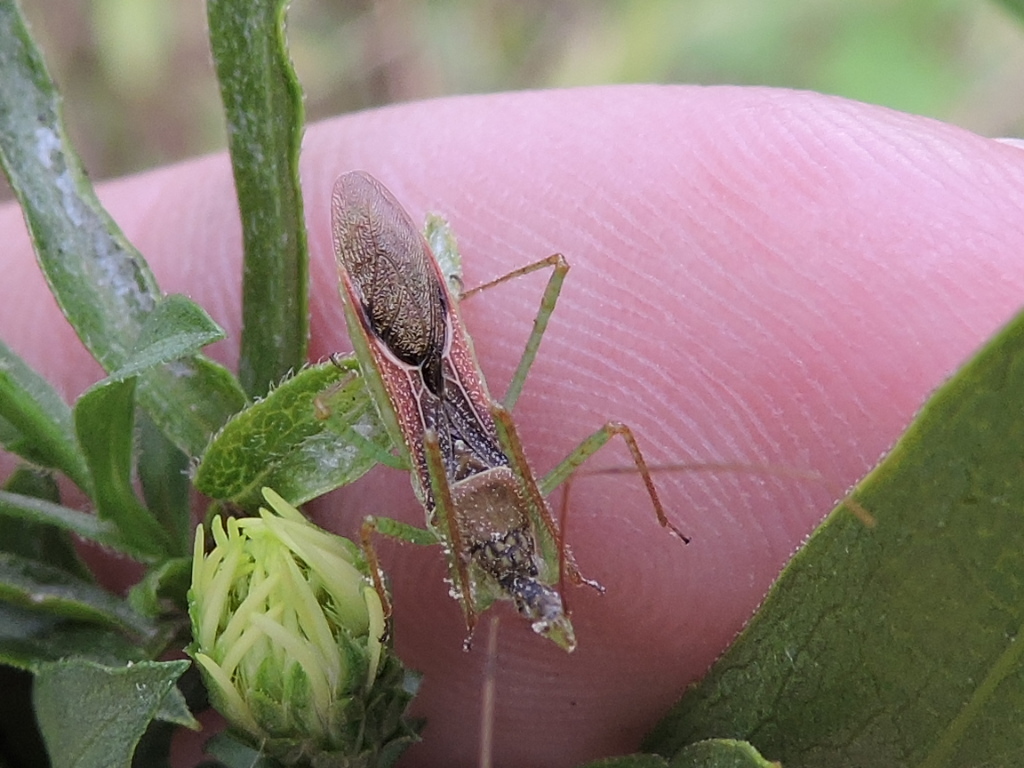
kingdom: Animalia
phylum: Arthropoda
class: Insecta
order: Hemiptera
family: Reduviidae
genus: Zelus
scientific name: Zelus renardii
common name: Assassin bug
